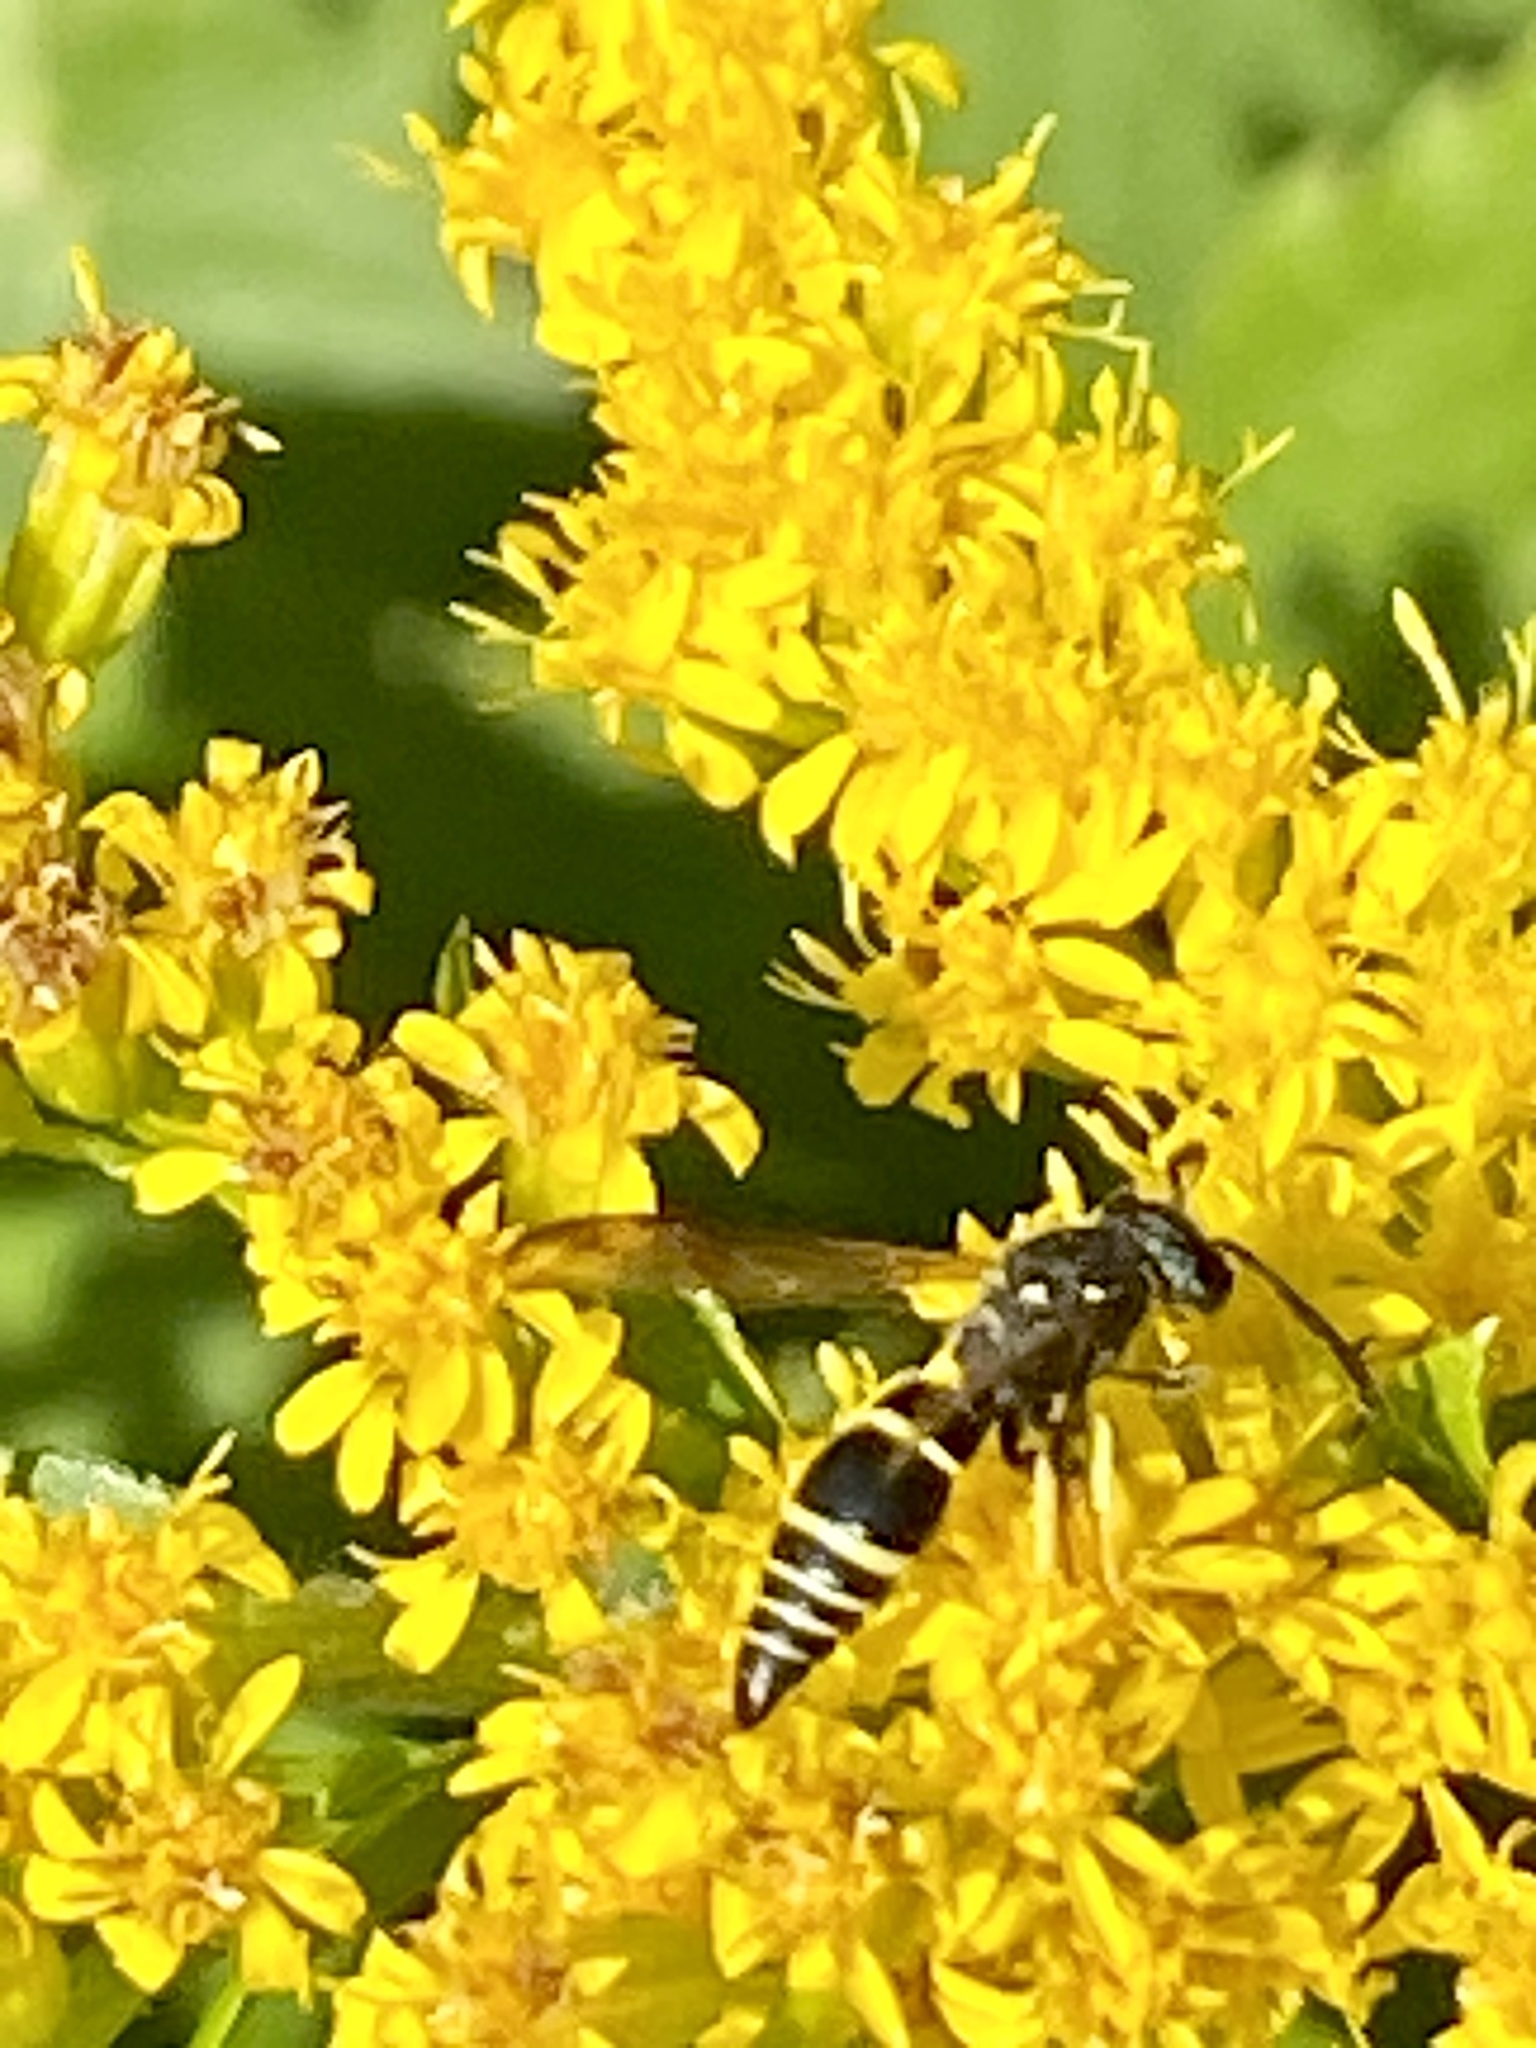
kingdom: Animalia
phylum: Arthropoda
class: Insecta
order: Hymenoptera
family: Vespidae
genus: Ancistrocerus
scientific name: Ancistrocerus
